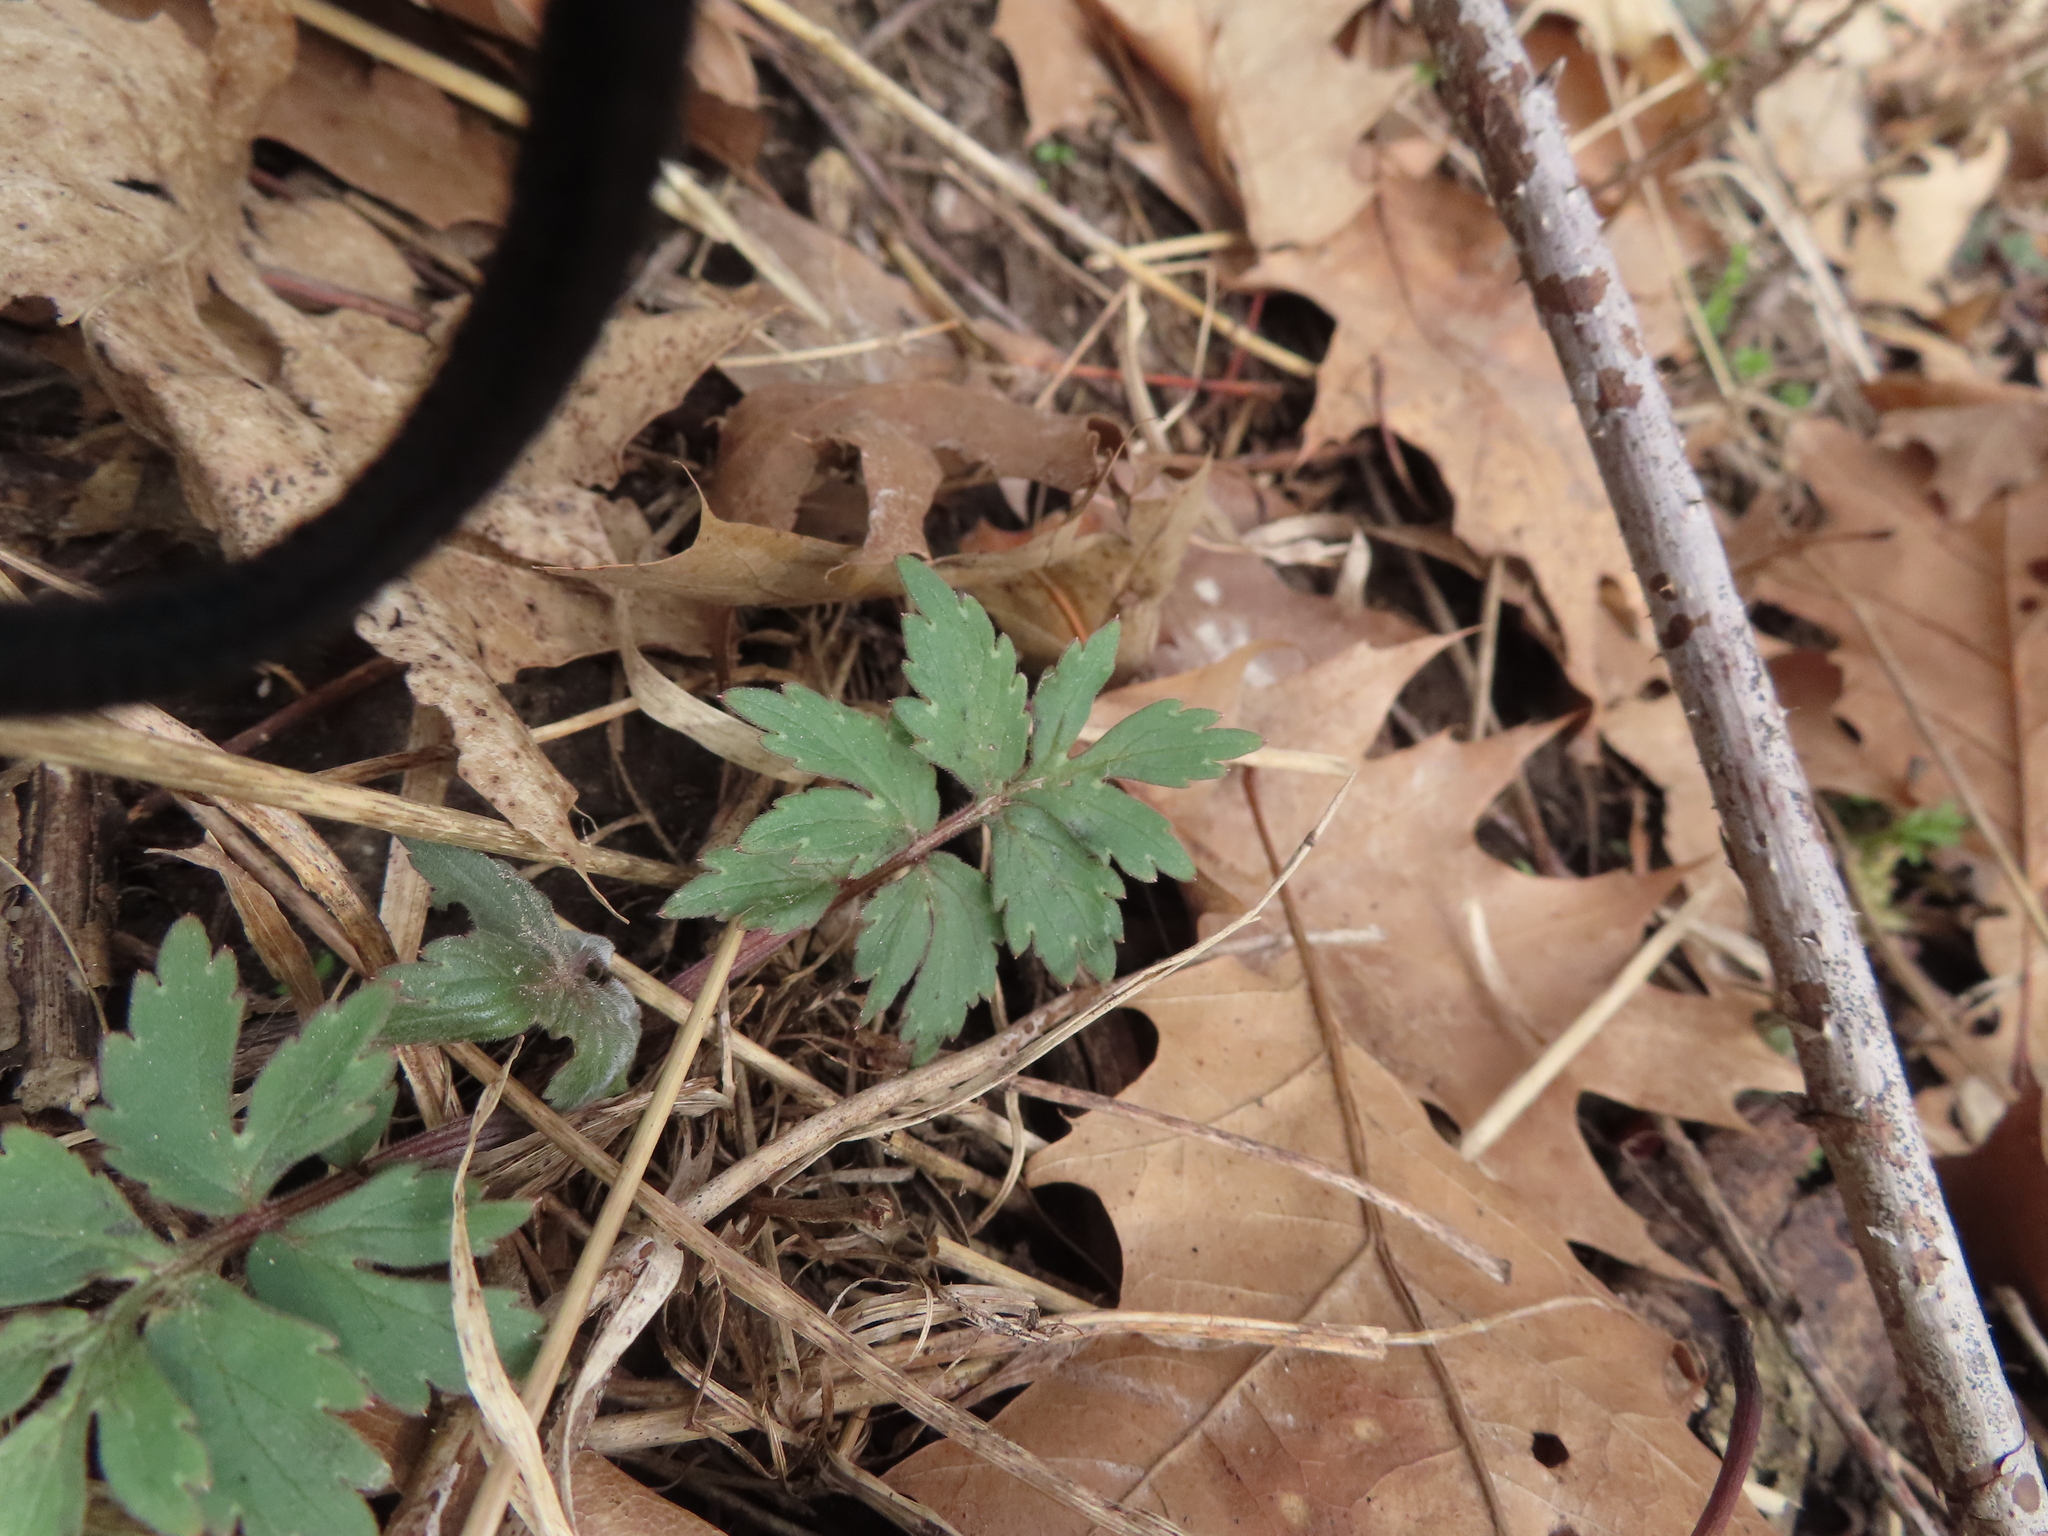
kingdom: Plantae
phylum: Tracheophyta
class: Magnoliopsida
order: Boraginales
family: Hydrophyllaceae
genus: Hydrophyllum
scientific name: Hydrophyllum virginianum
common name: Virginia waterleaf
